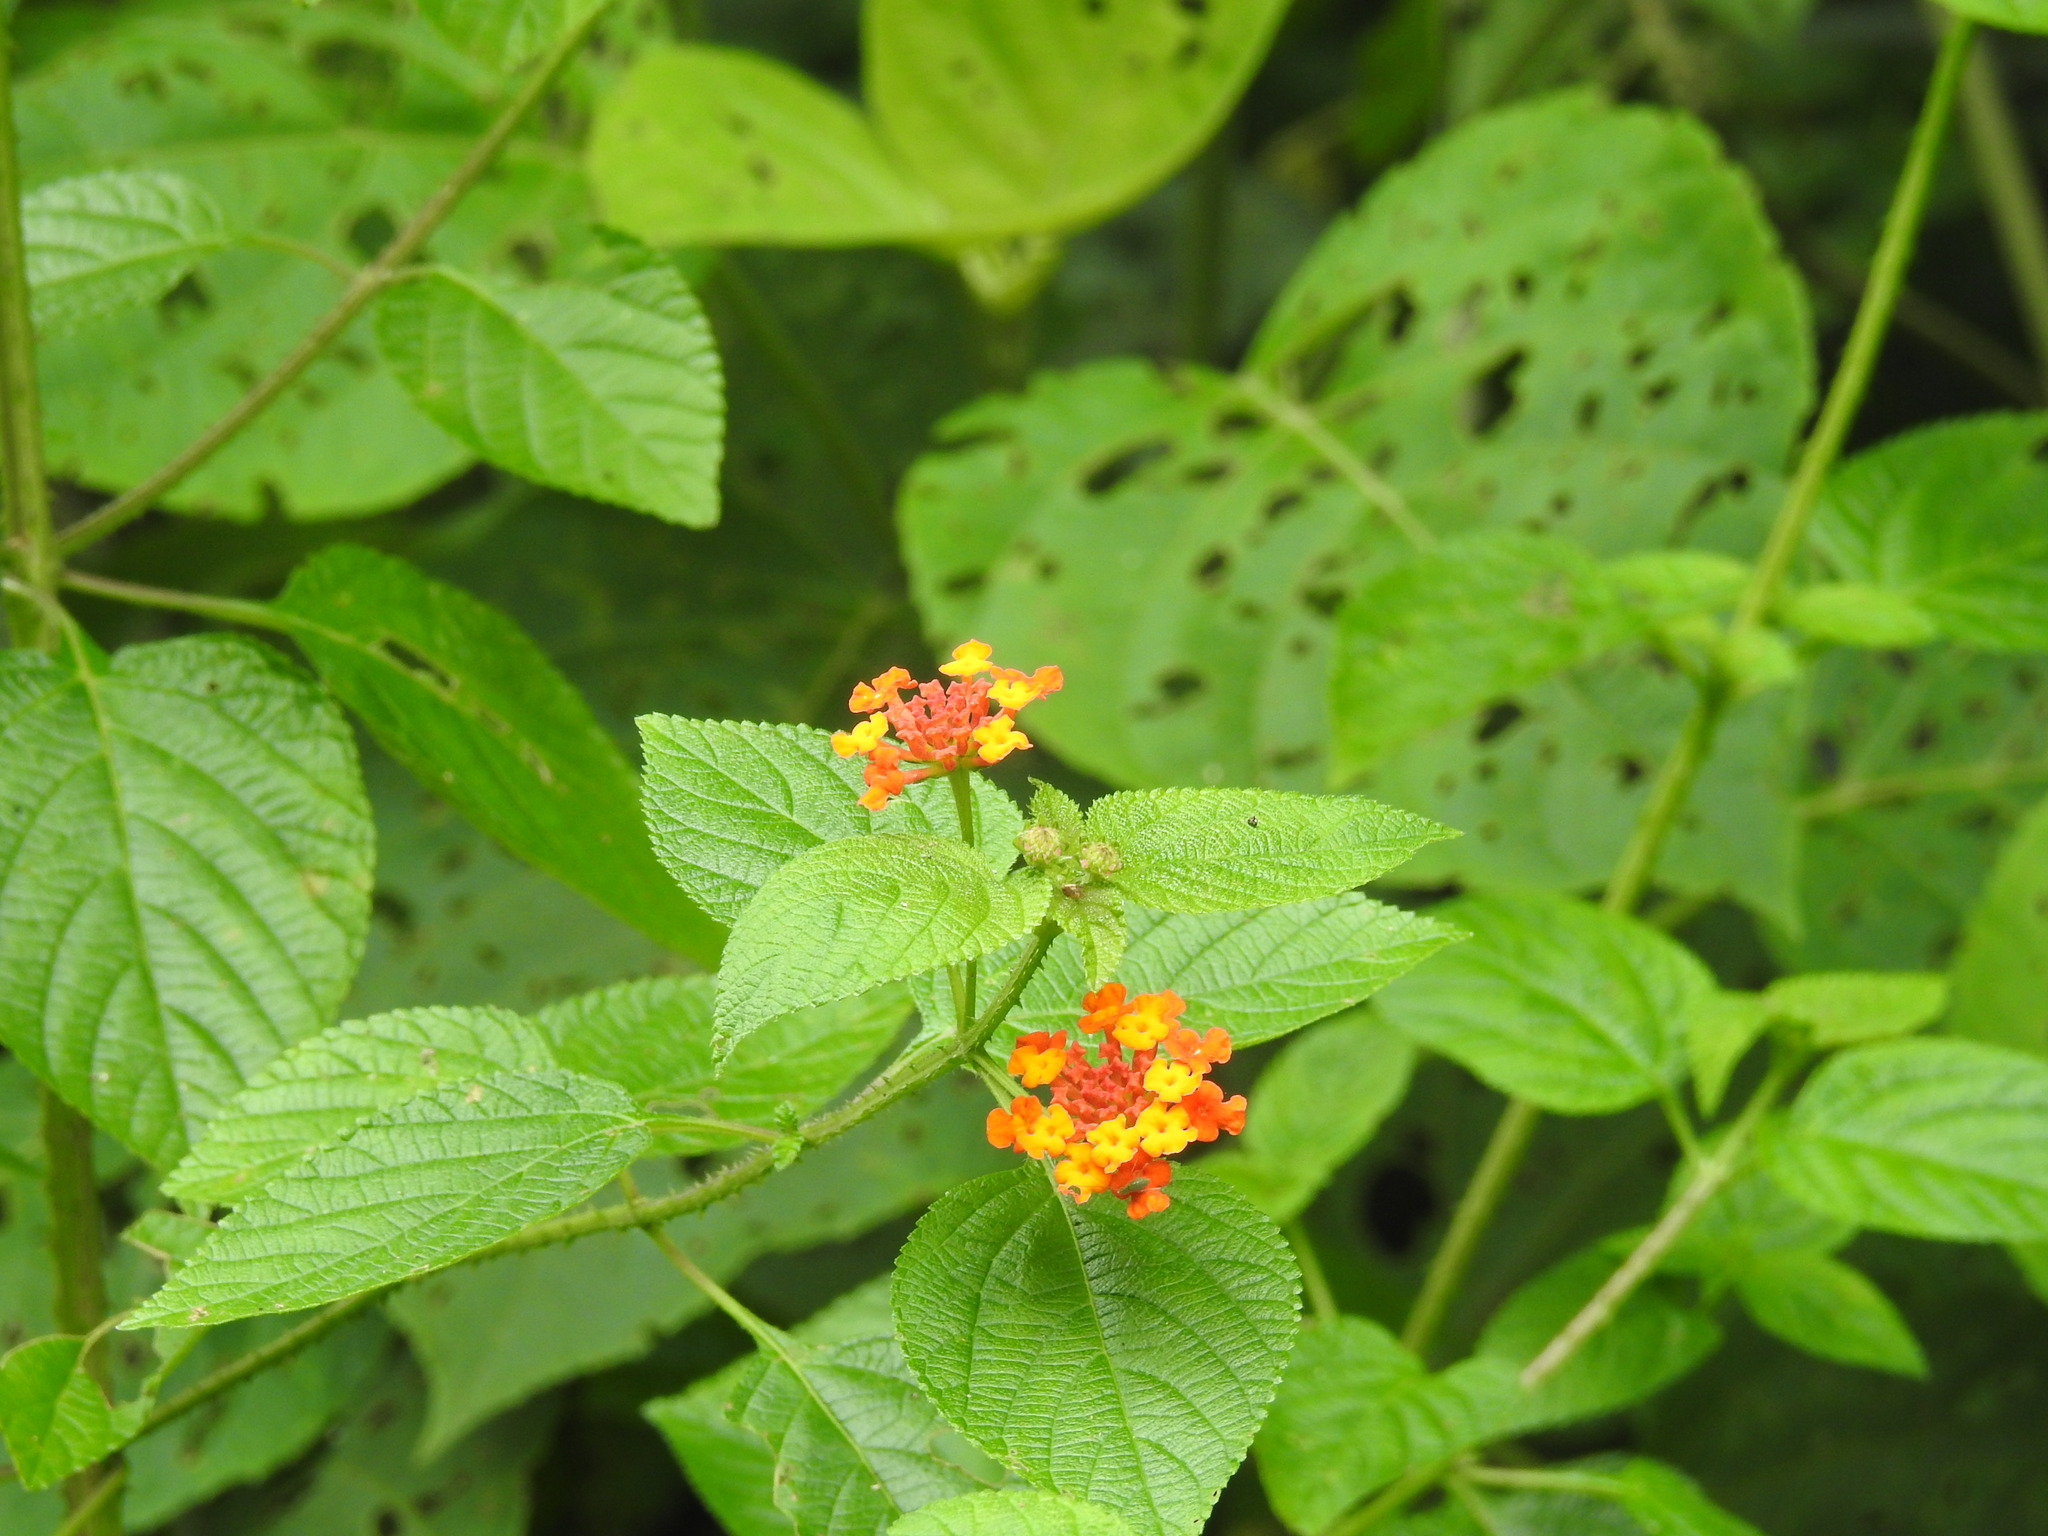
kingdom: Plantae
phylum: Tracheophyta
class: Magnoliopsida
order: Lamiales
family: Verbenaceae
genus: Lantana
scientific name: Lantana camara
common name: Lantana
